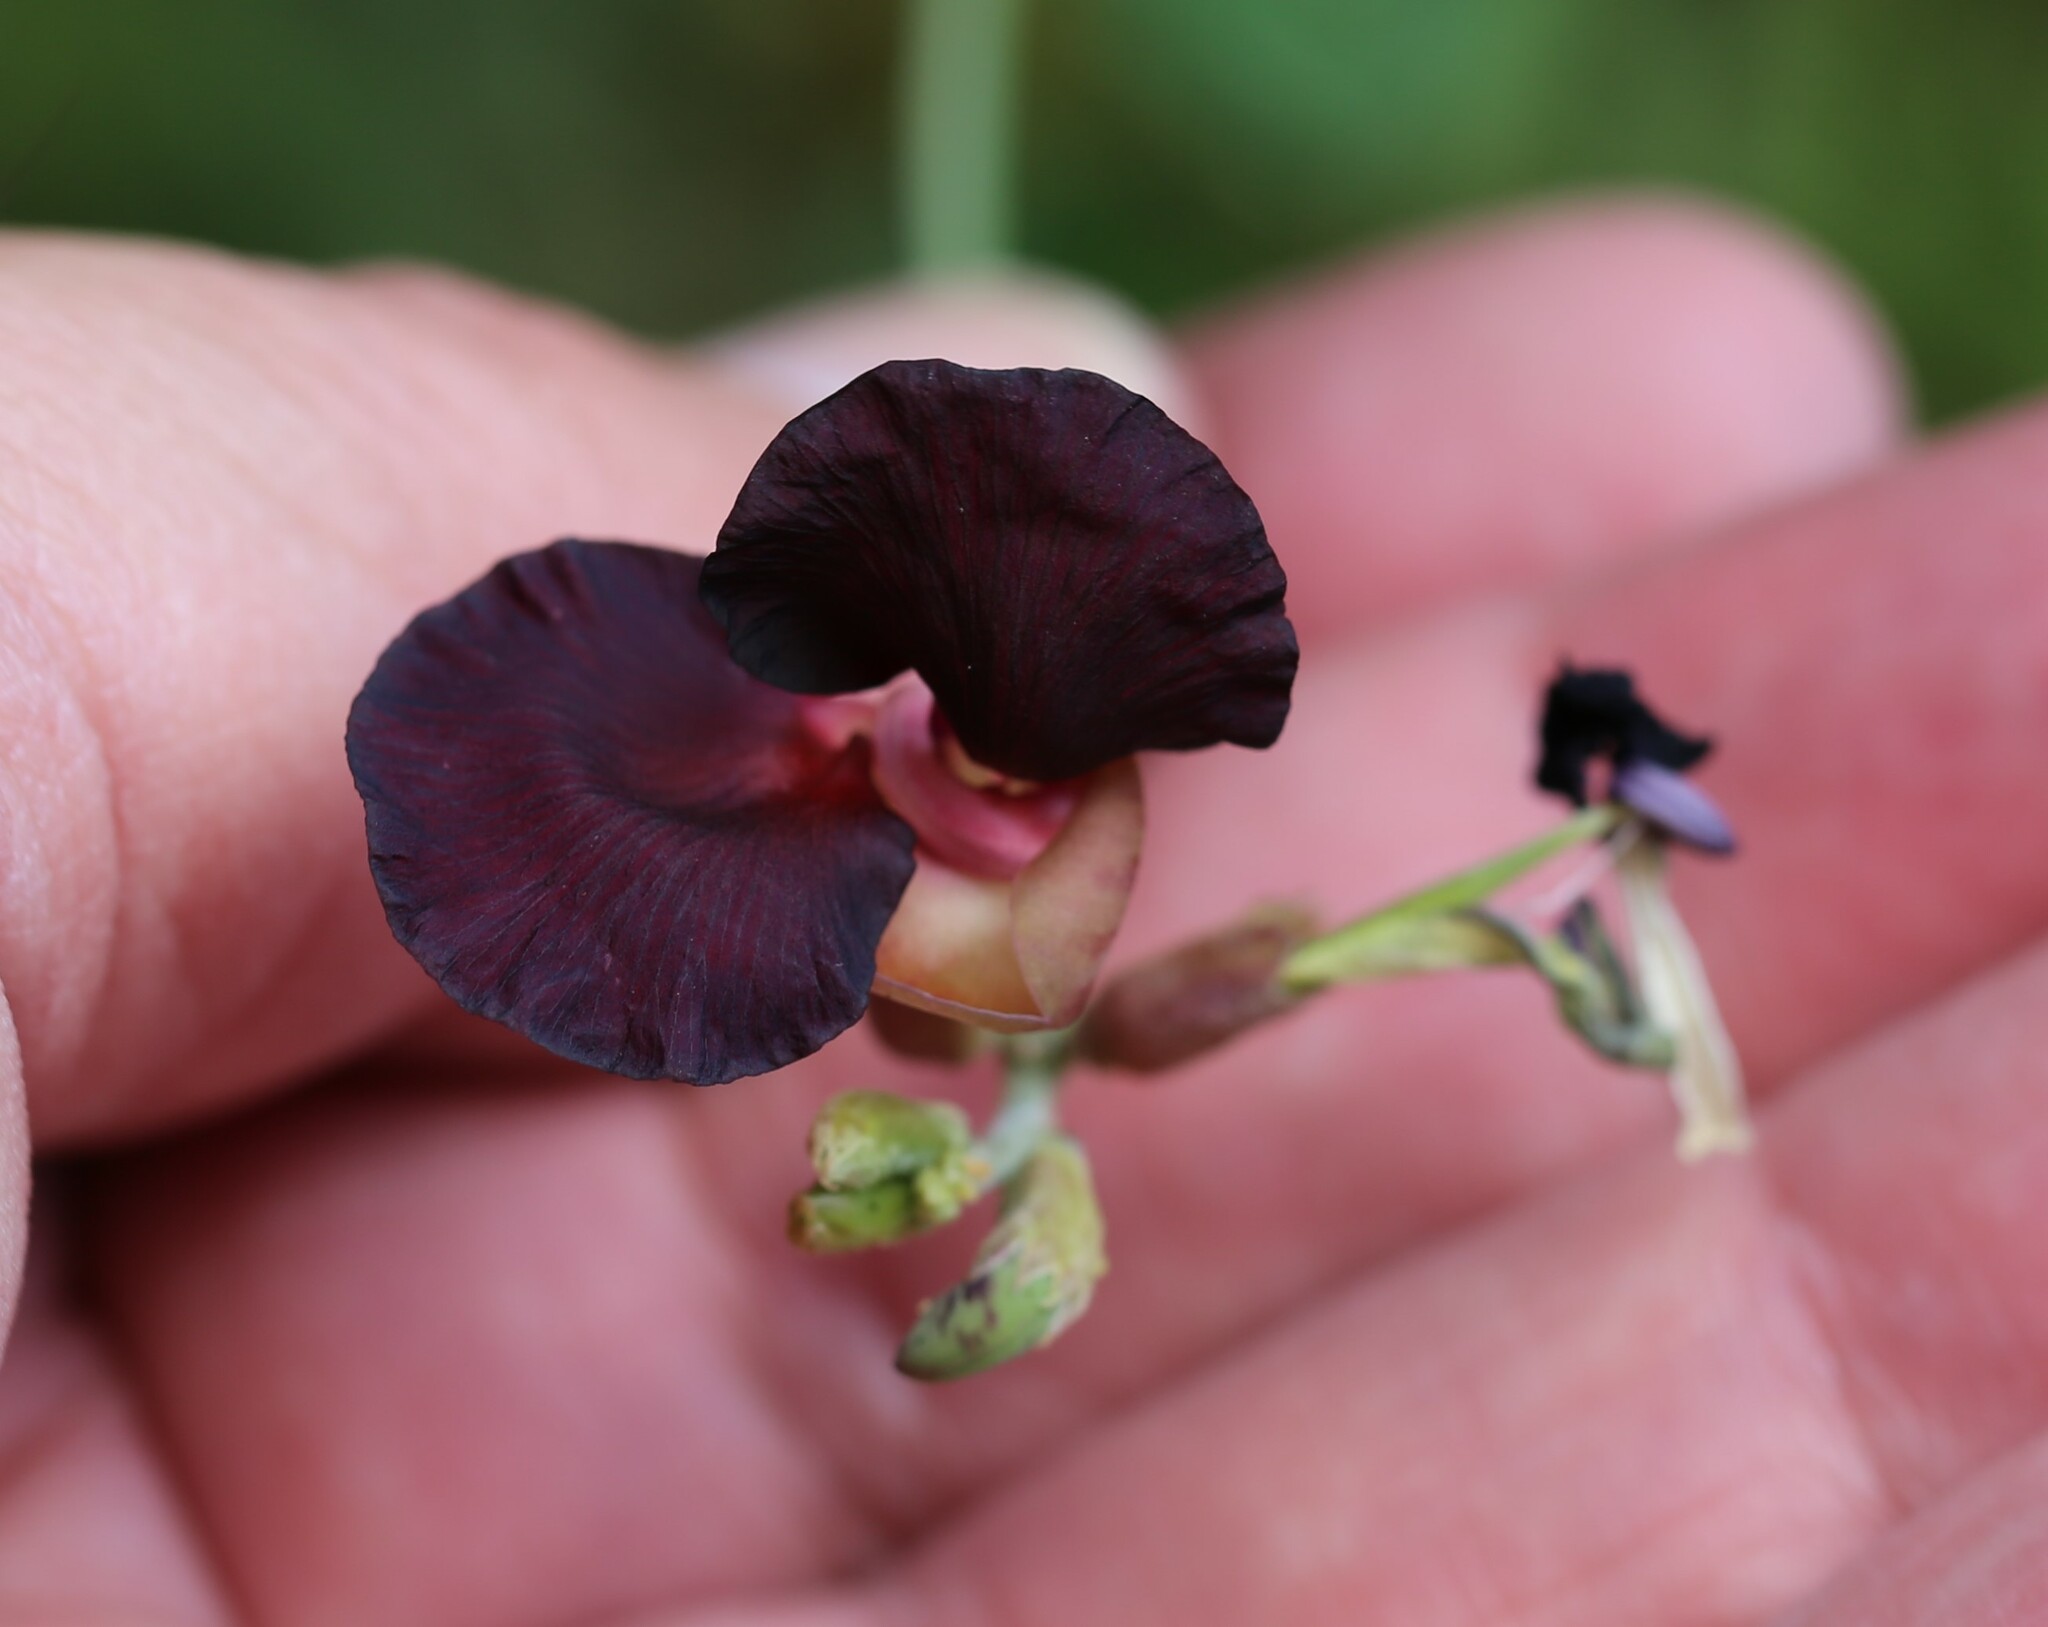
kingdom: Plantae
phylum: Tracheophyta
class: Magnoliopsida
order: Fabales
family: Fabaceae
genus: Macroptilium
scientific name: Macroptilium atropurpureum
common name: Purple bushbean
